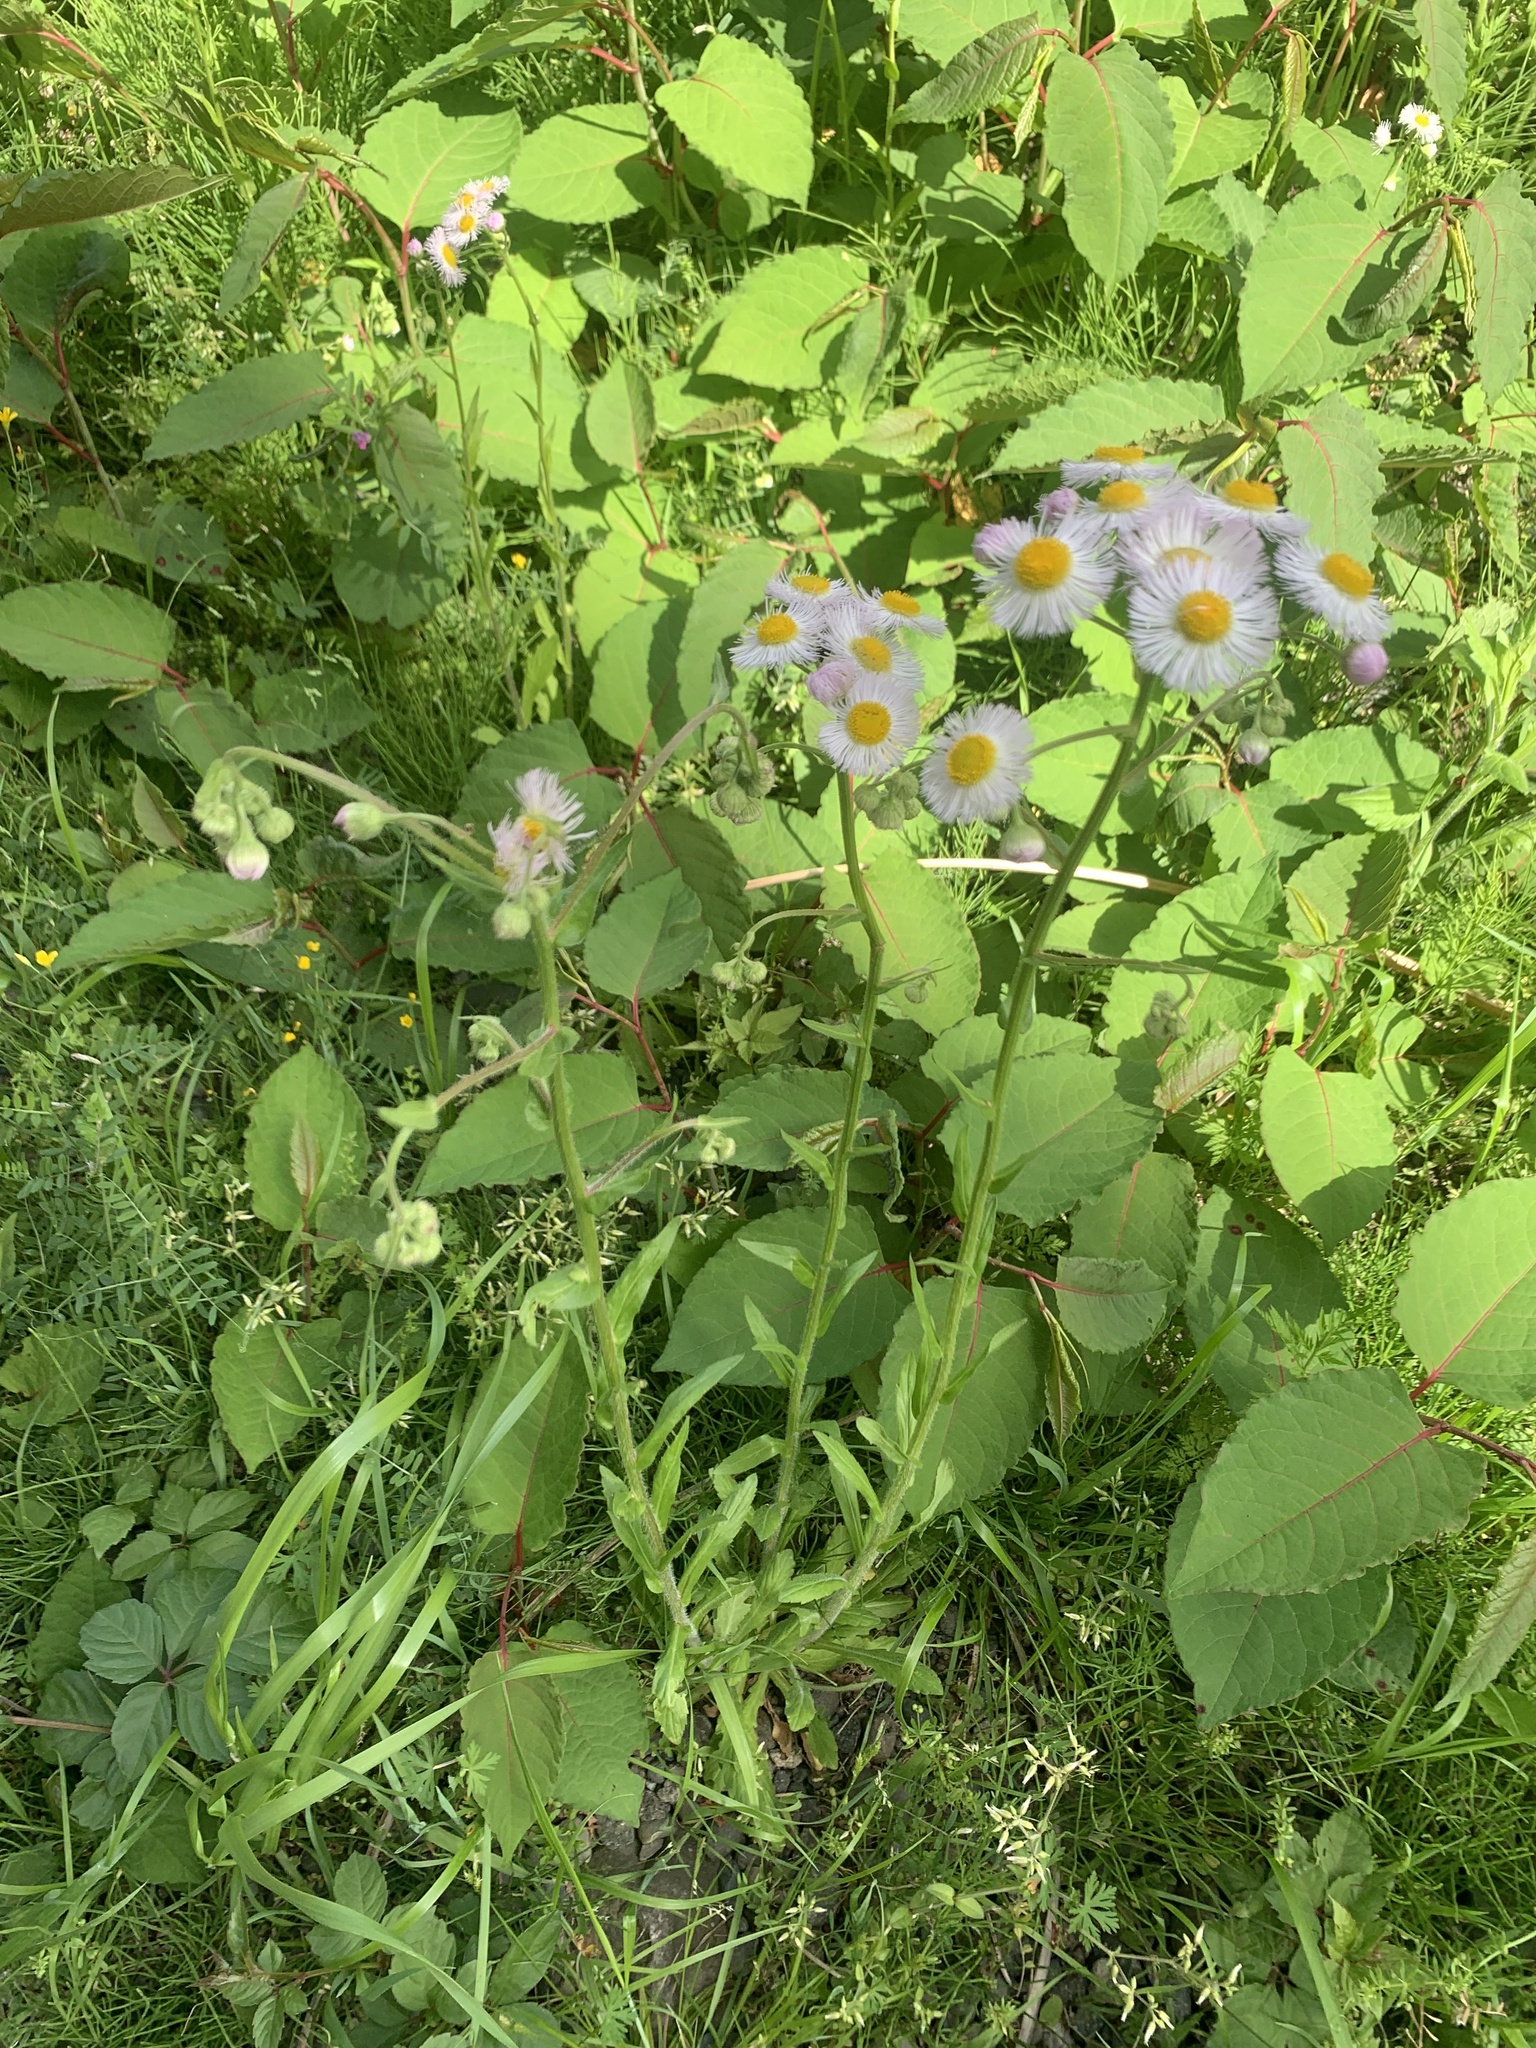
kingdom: Plantae
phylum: Tracheophyta
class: Magnoliopsida
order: Asterales
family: Asteraceae
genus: Erigeron
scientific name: Erigeron philadelphicus
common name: Robin's-plantain
